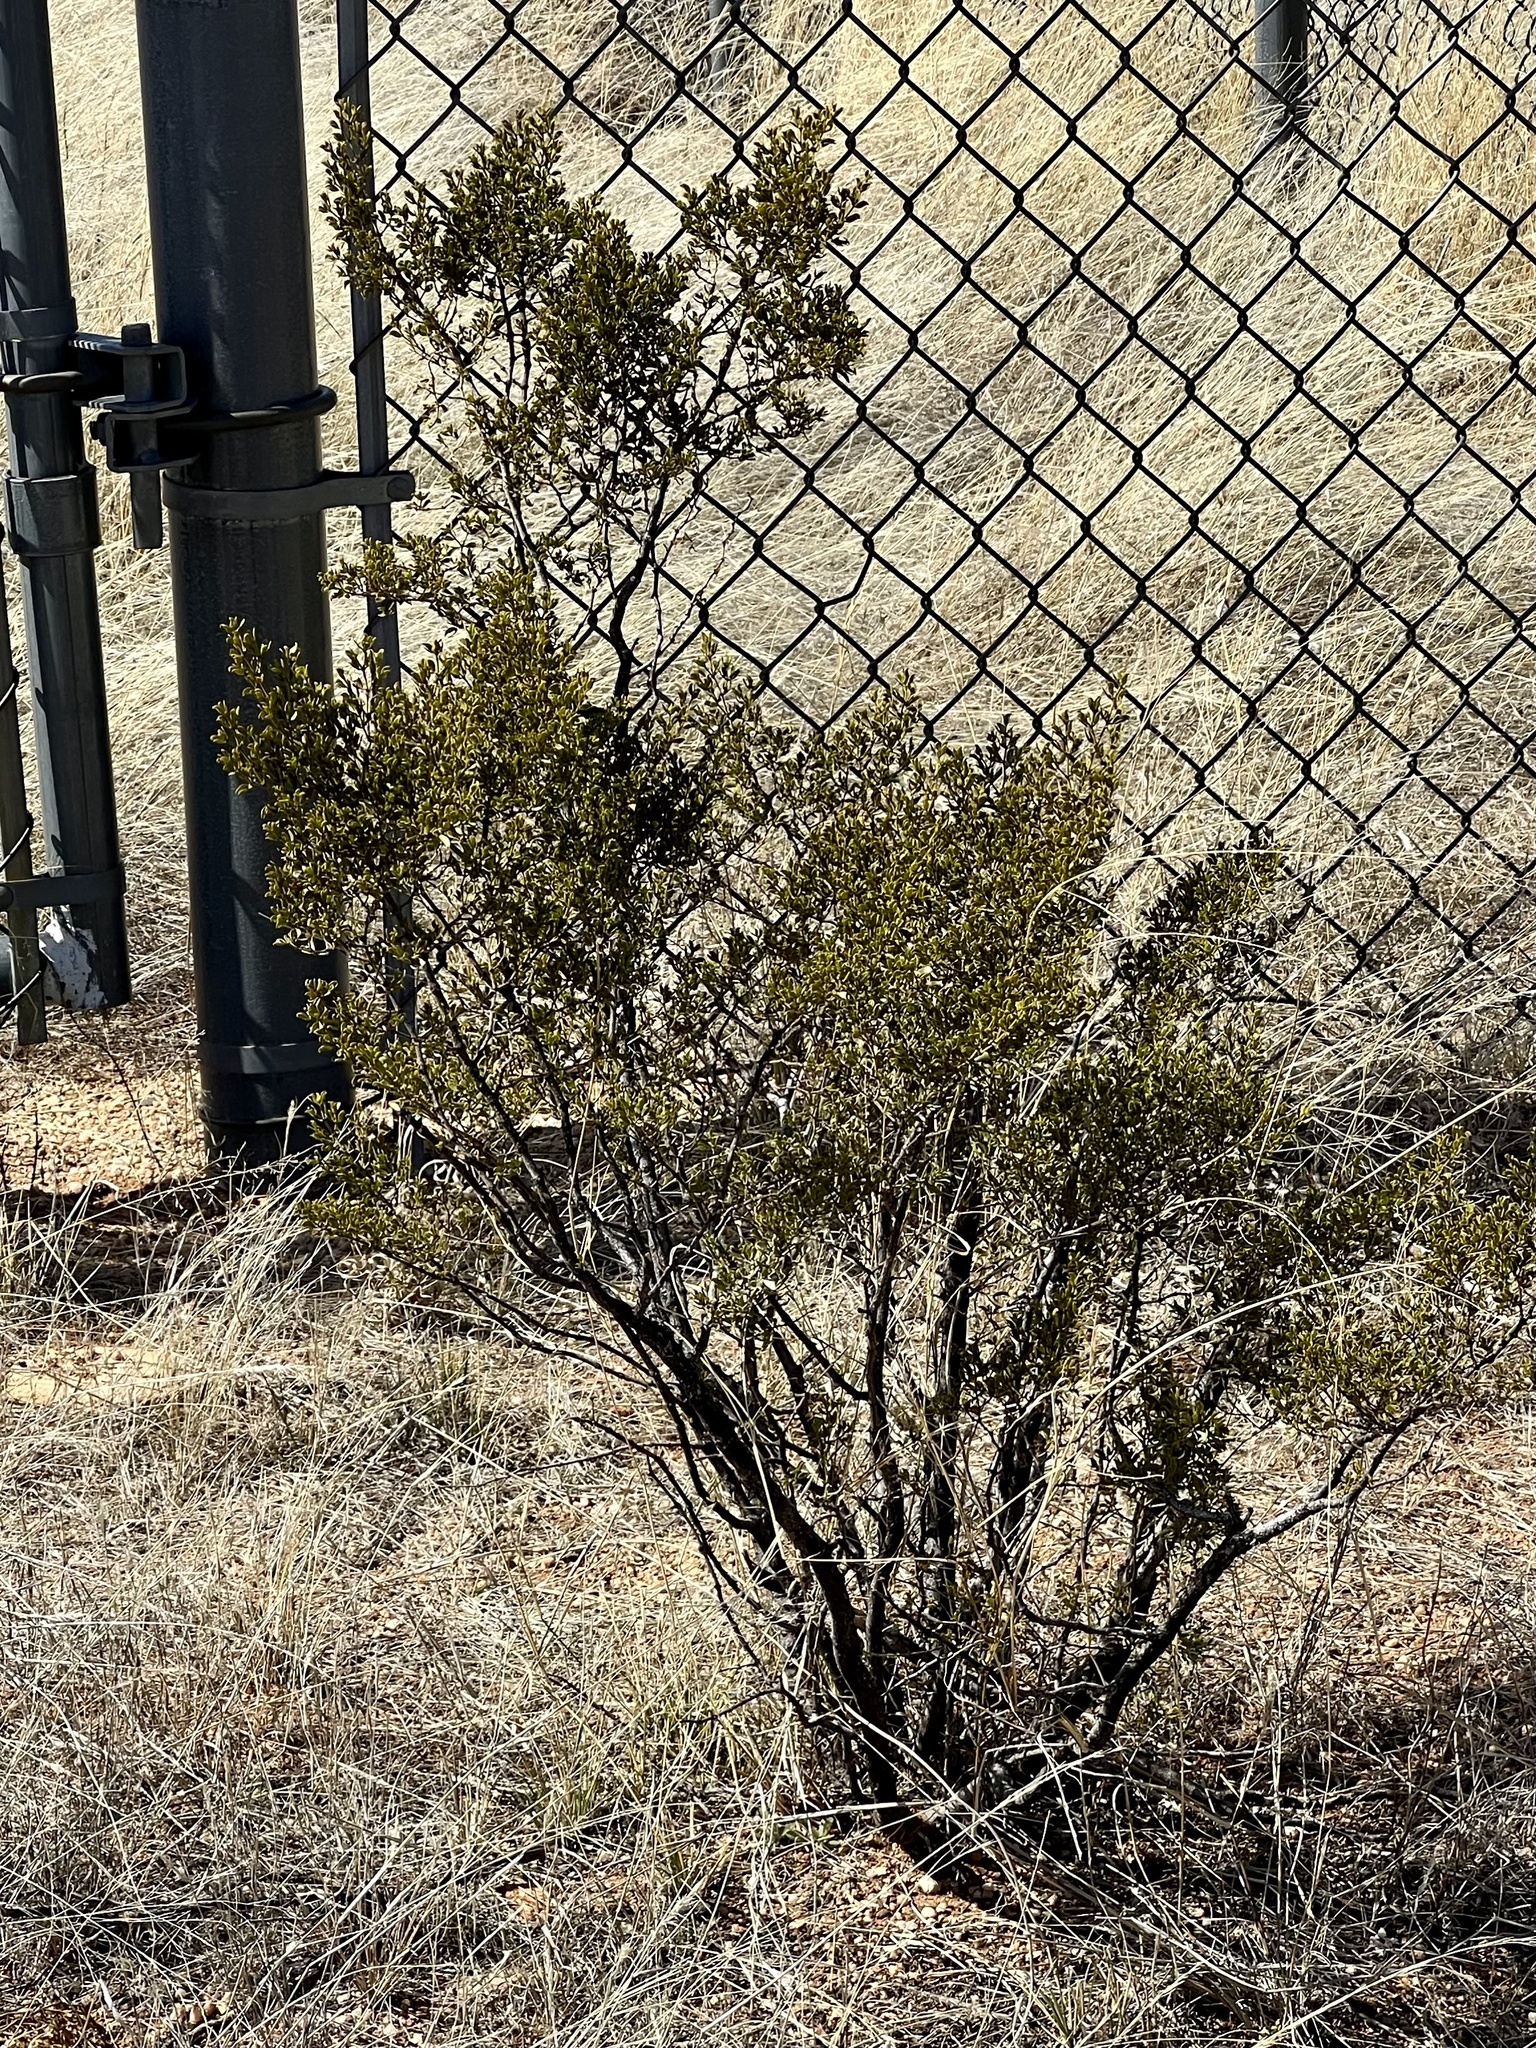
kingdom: Plantae
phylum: Tracheophyta
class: Magnoliopsida
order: Zygophyllales
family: Zygophyllaceae
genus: Larrea
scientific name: Larrea tridentata
